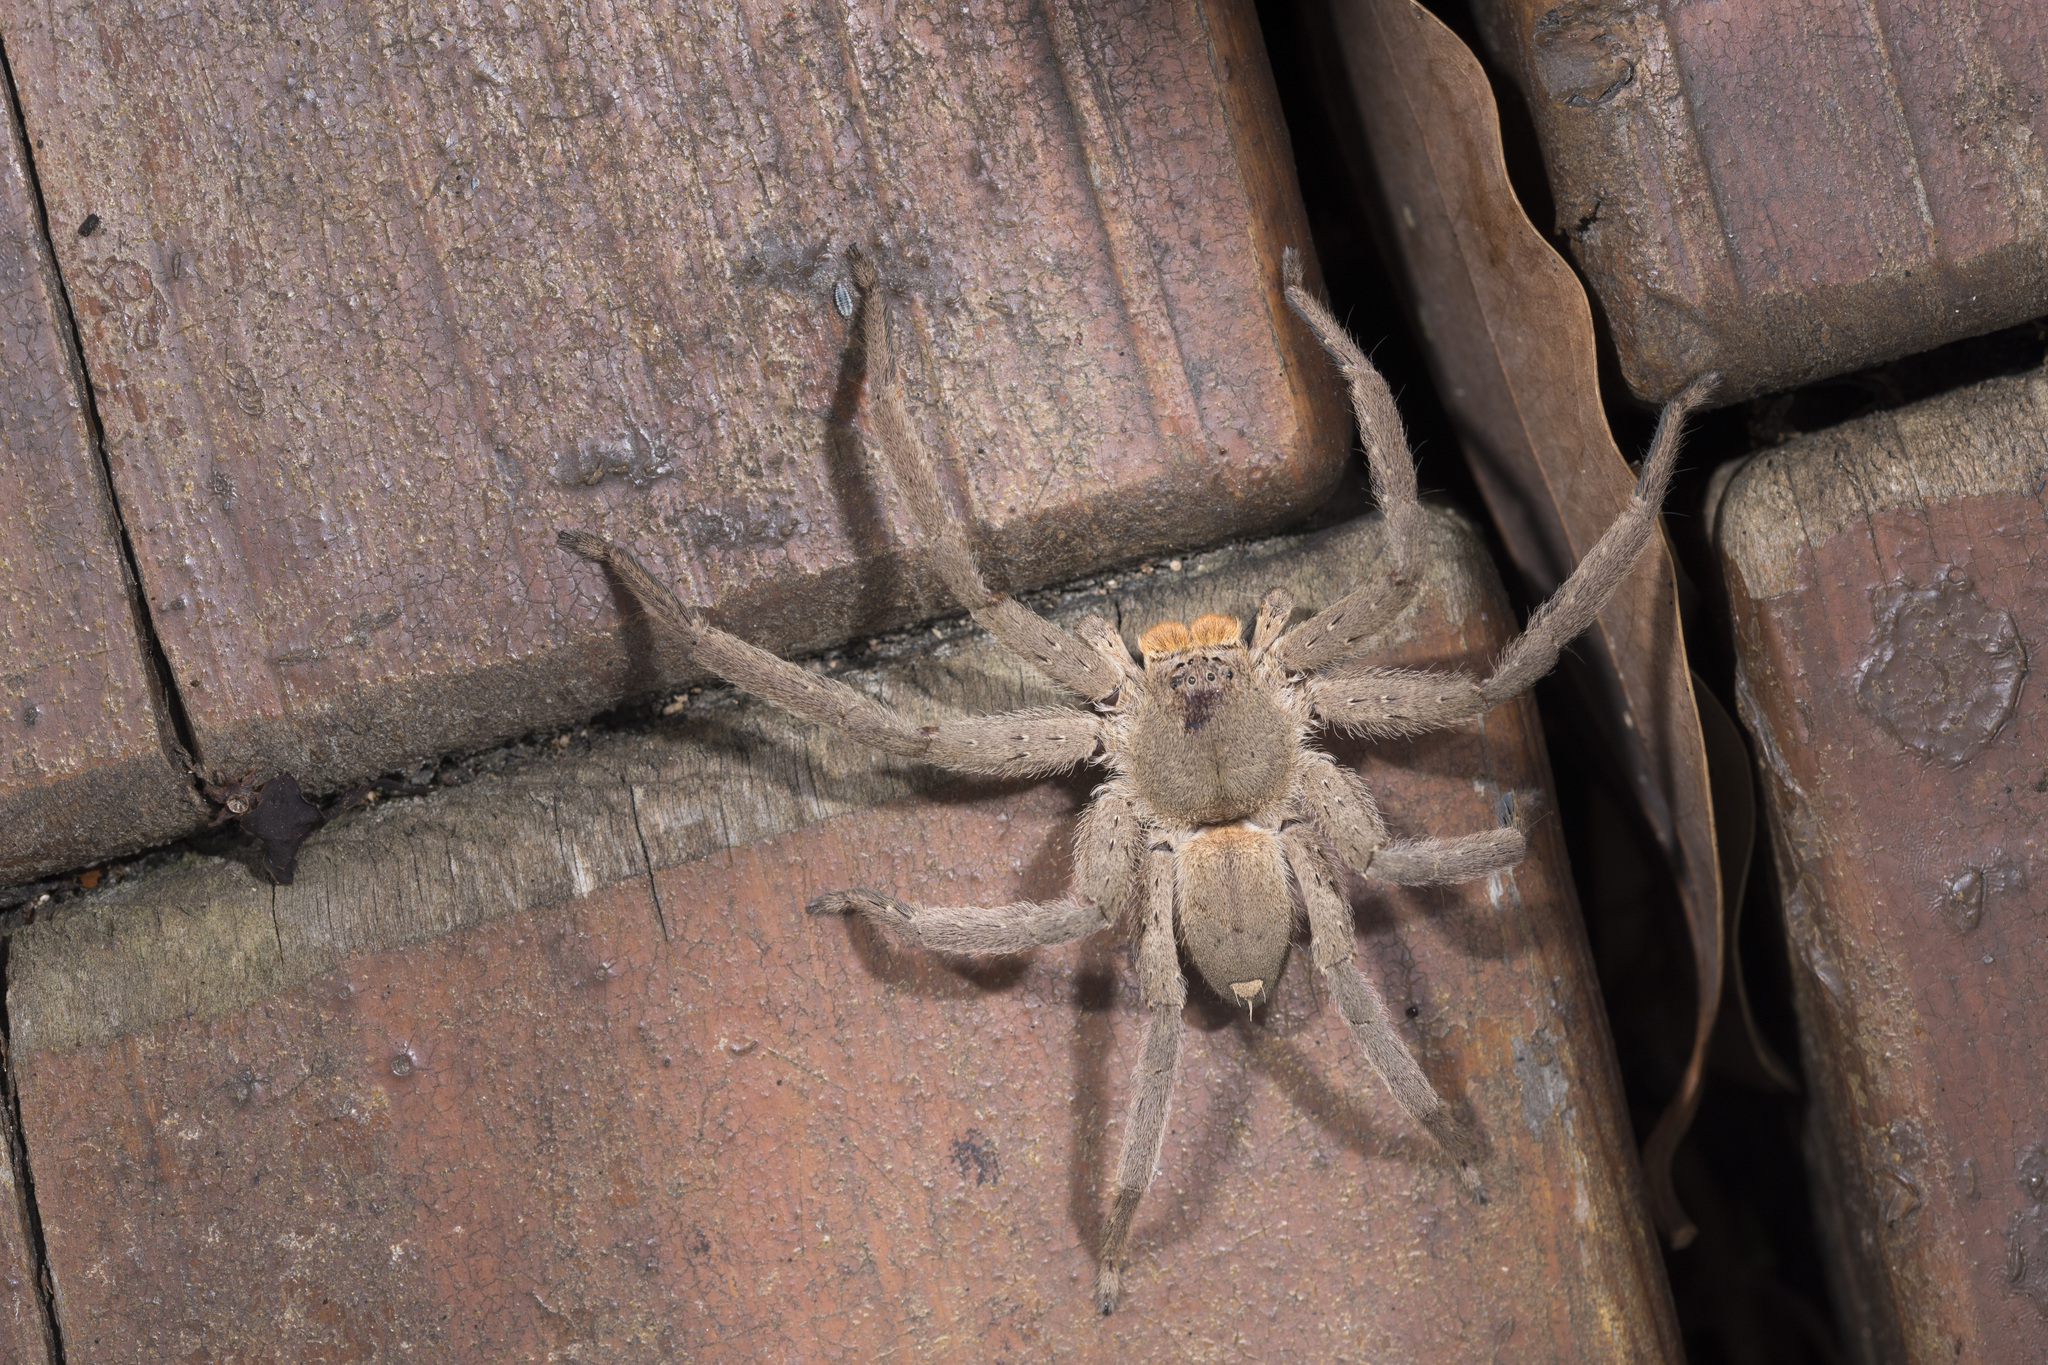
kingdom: Animalia
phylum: Arthropoda
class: Arachnida
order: Araneae
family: Sparassidae
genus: Heteropoda
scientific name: Heteropoda pingtungensis
